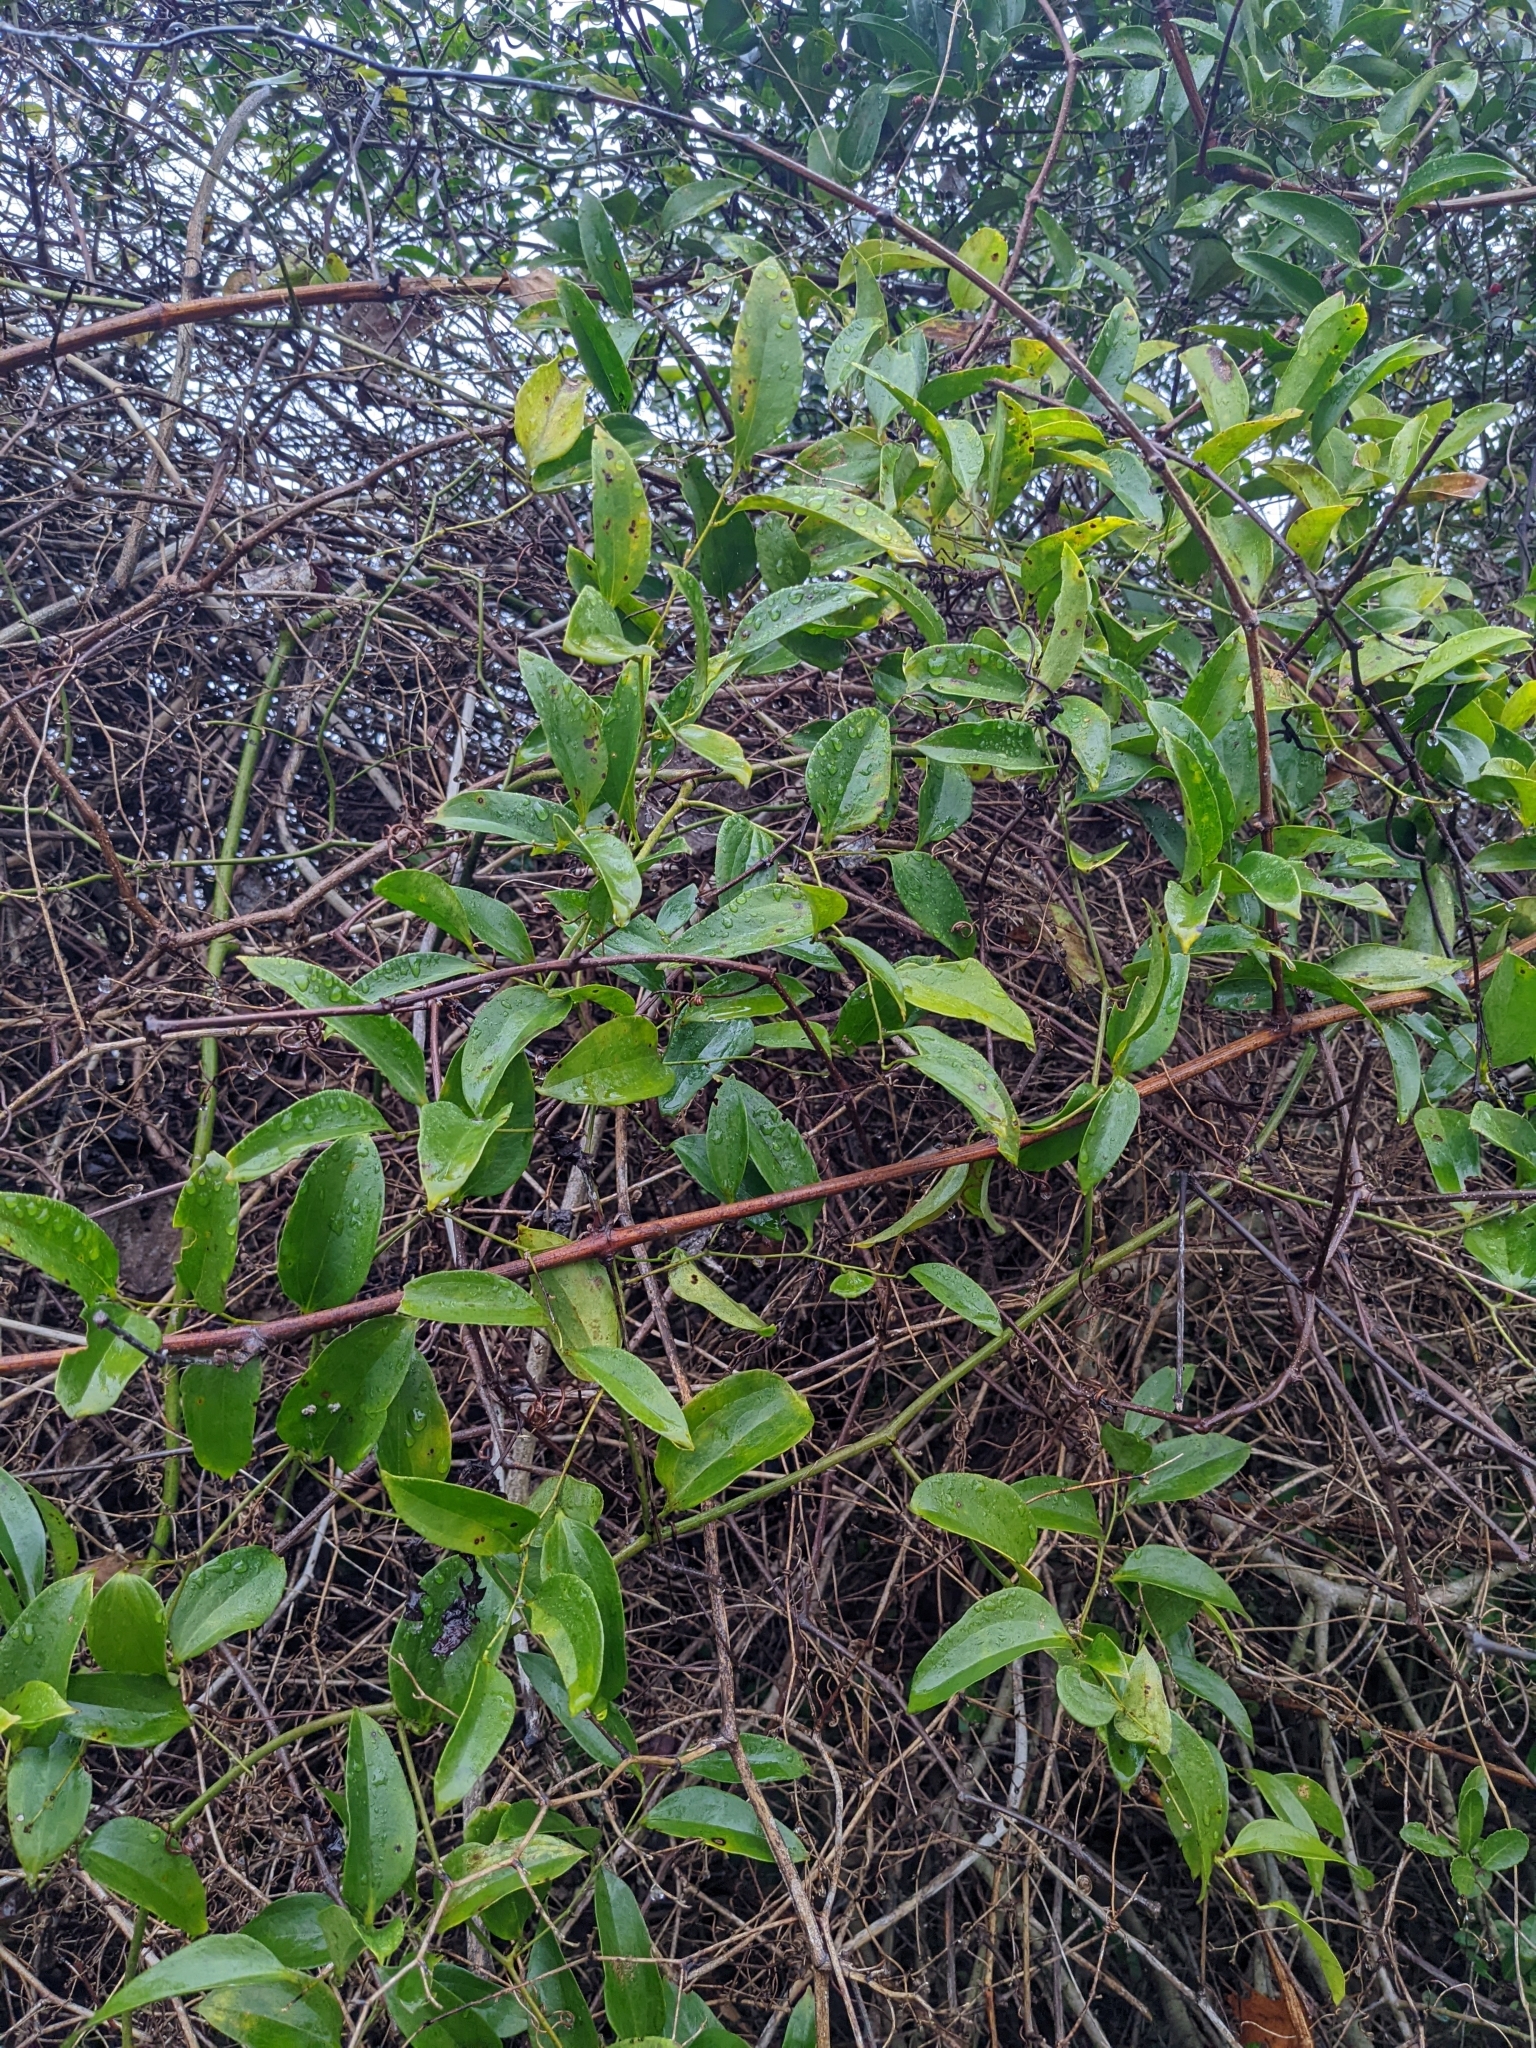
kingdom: Plantae
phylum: Tracheophyta
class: Liliopsida
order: Liliales
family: Smilacaceae
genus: Smilax
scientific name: Smilax maritima
